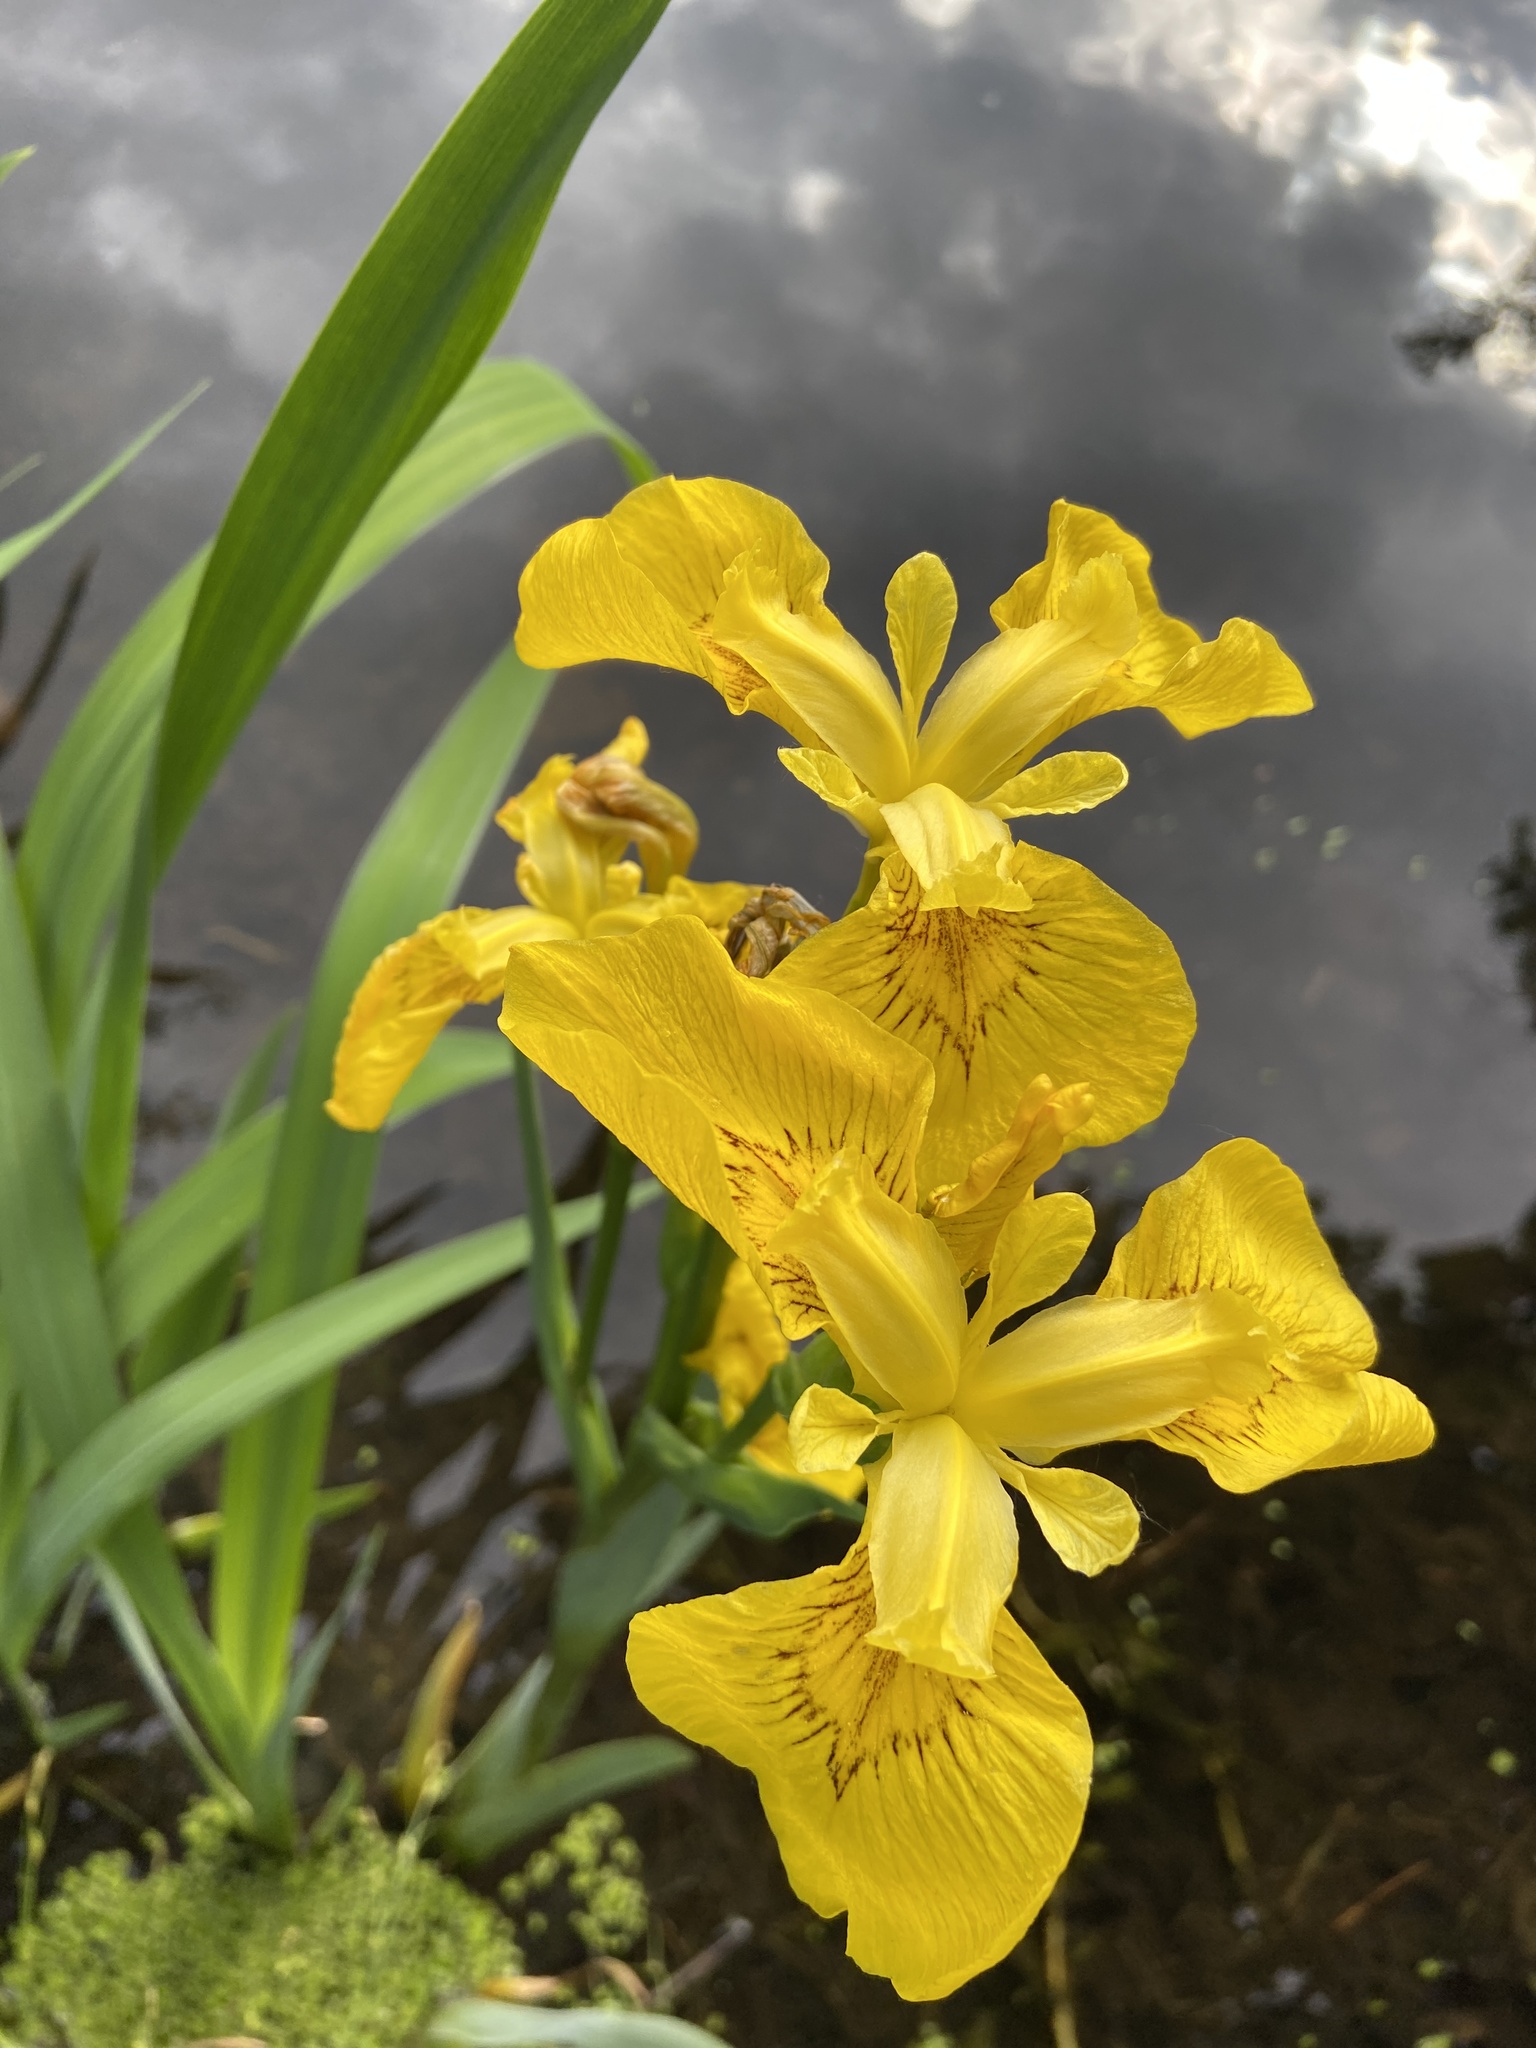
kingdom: Plantae
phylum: Tracheophyta
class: Liliopsida
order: Asparagales
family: Iridaceae
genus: Iris
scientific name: Iris pseudacorus
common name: Yellow flag
